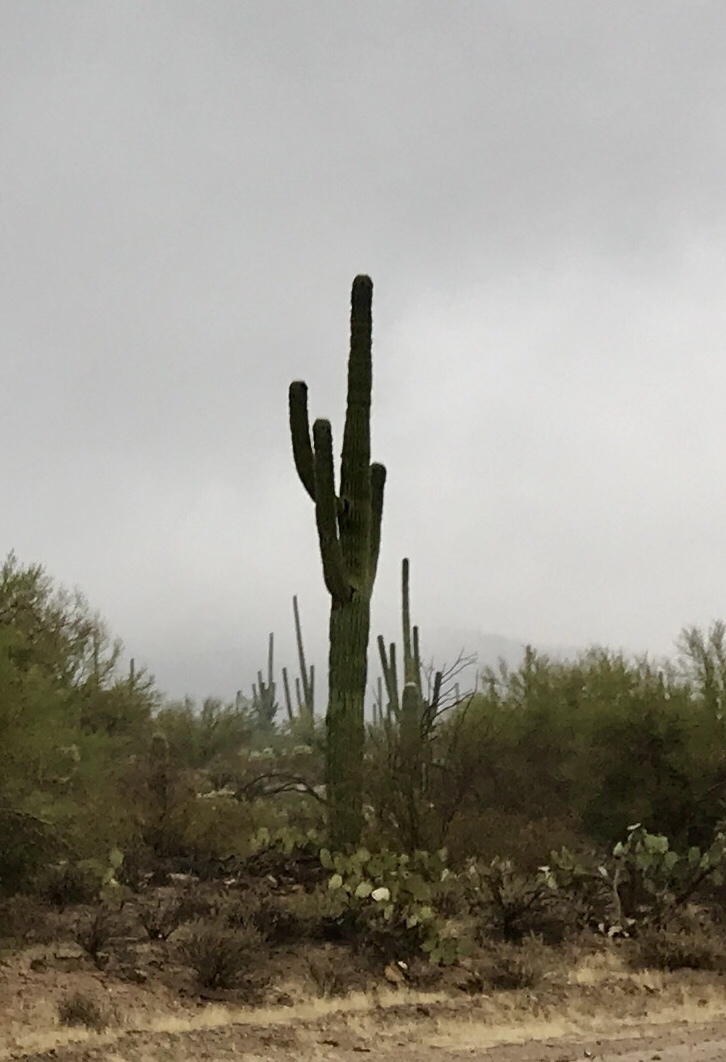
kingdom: Plantae
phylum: Tracheophyta
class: Magnoliopsida
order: Caryophyllales
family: Cactaceae
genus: Carnegiea
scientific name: Carnegiea gigantea
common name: Saguaro
